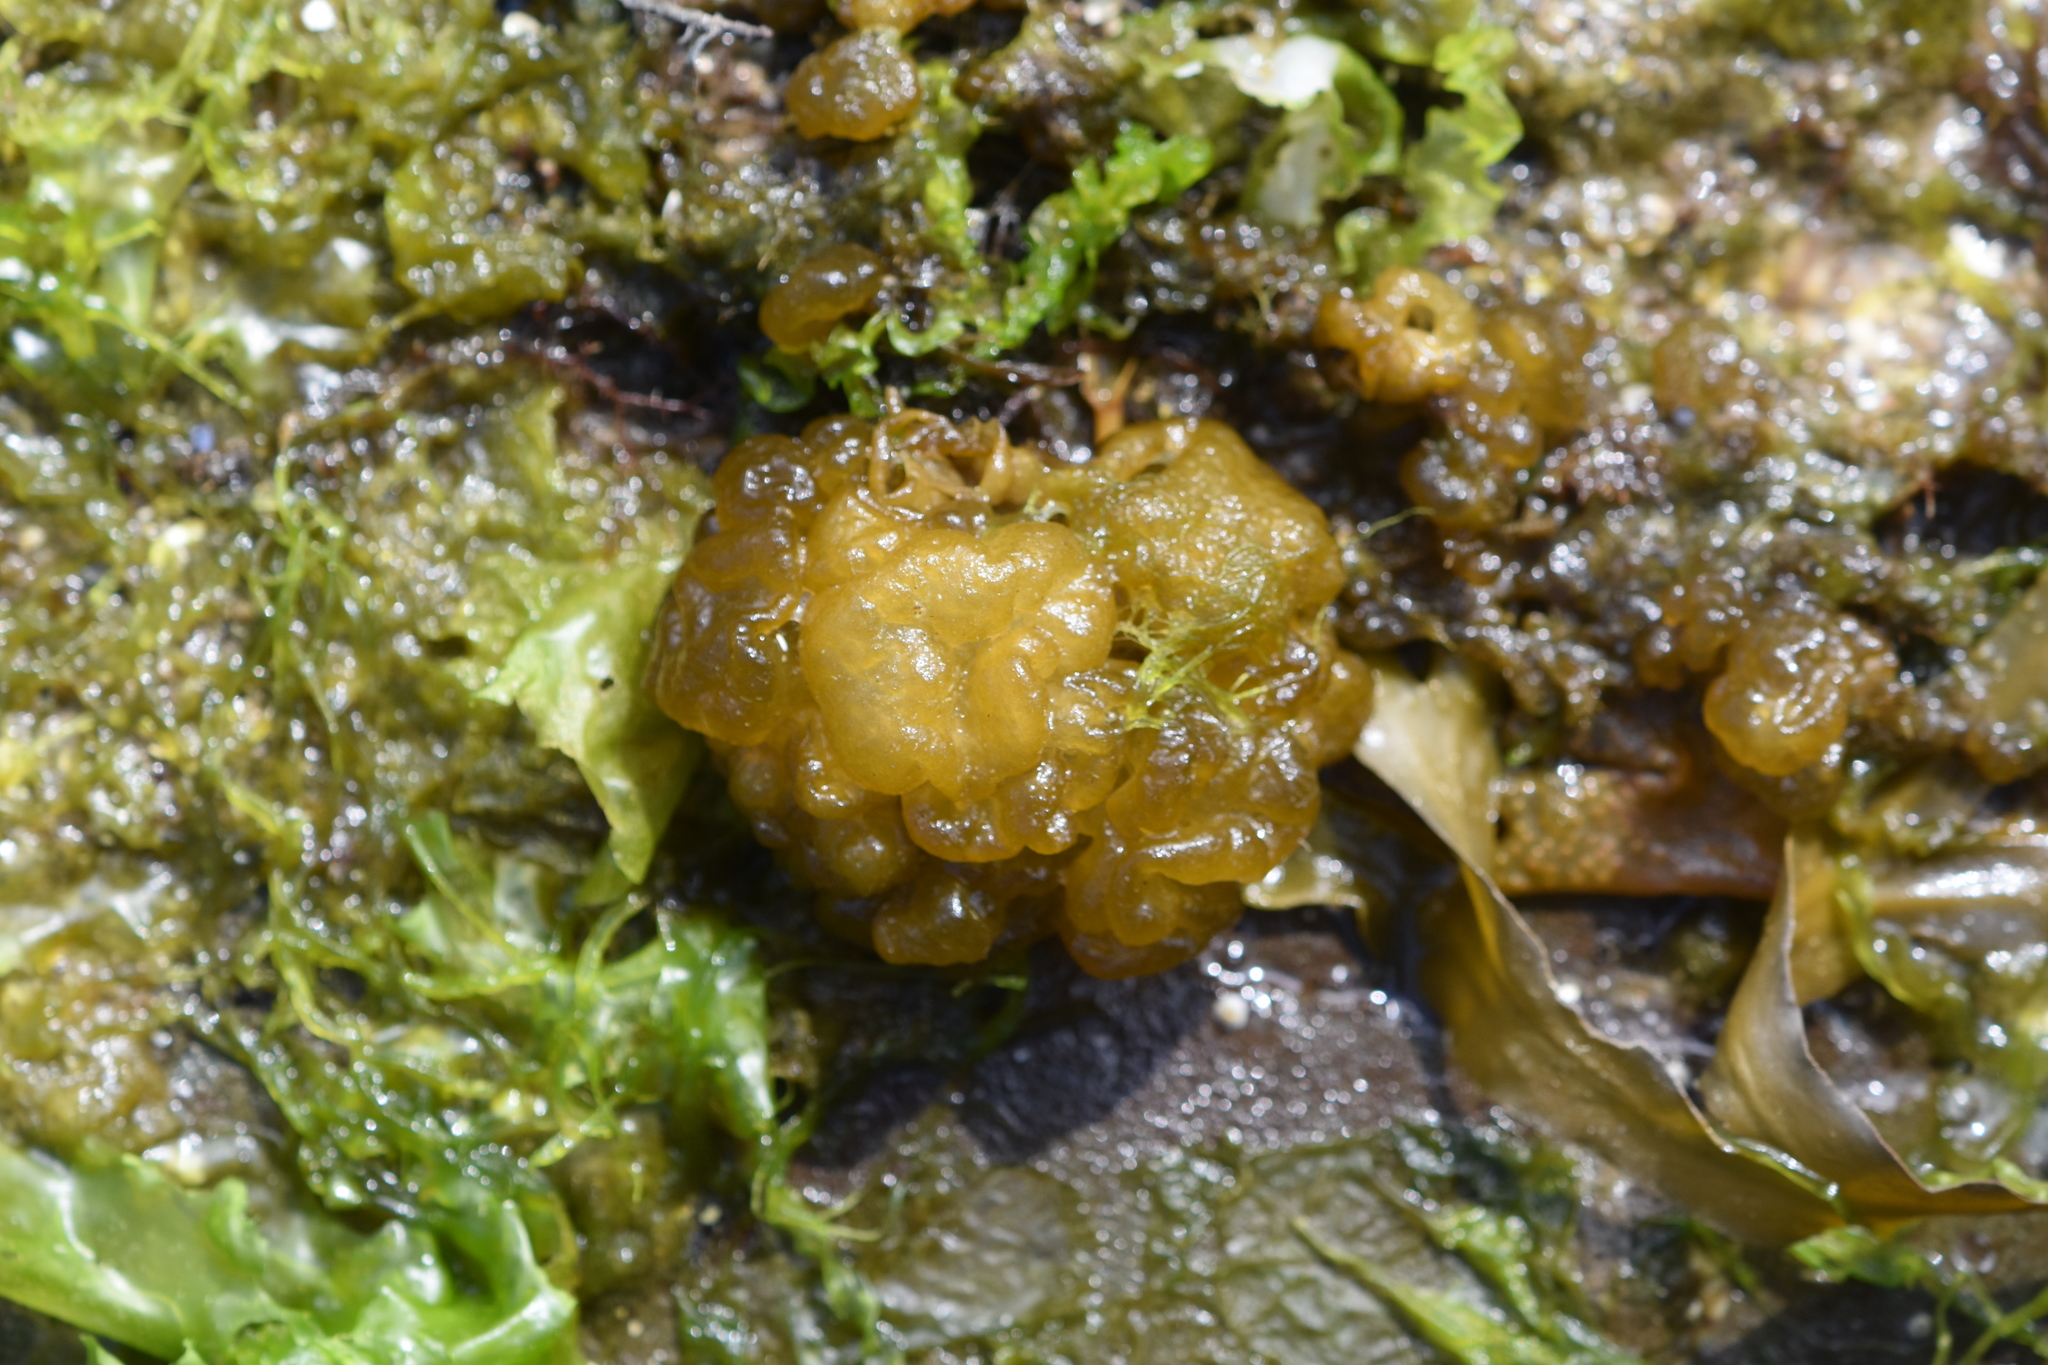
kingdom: Chromista
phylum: Ochrophyta
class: Phaeophyceae
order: Ectocarpales
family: Chordariaceae
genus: Leathesia
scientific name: Leathesia marina
